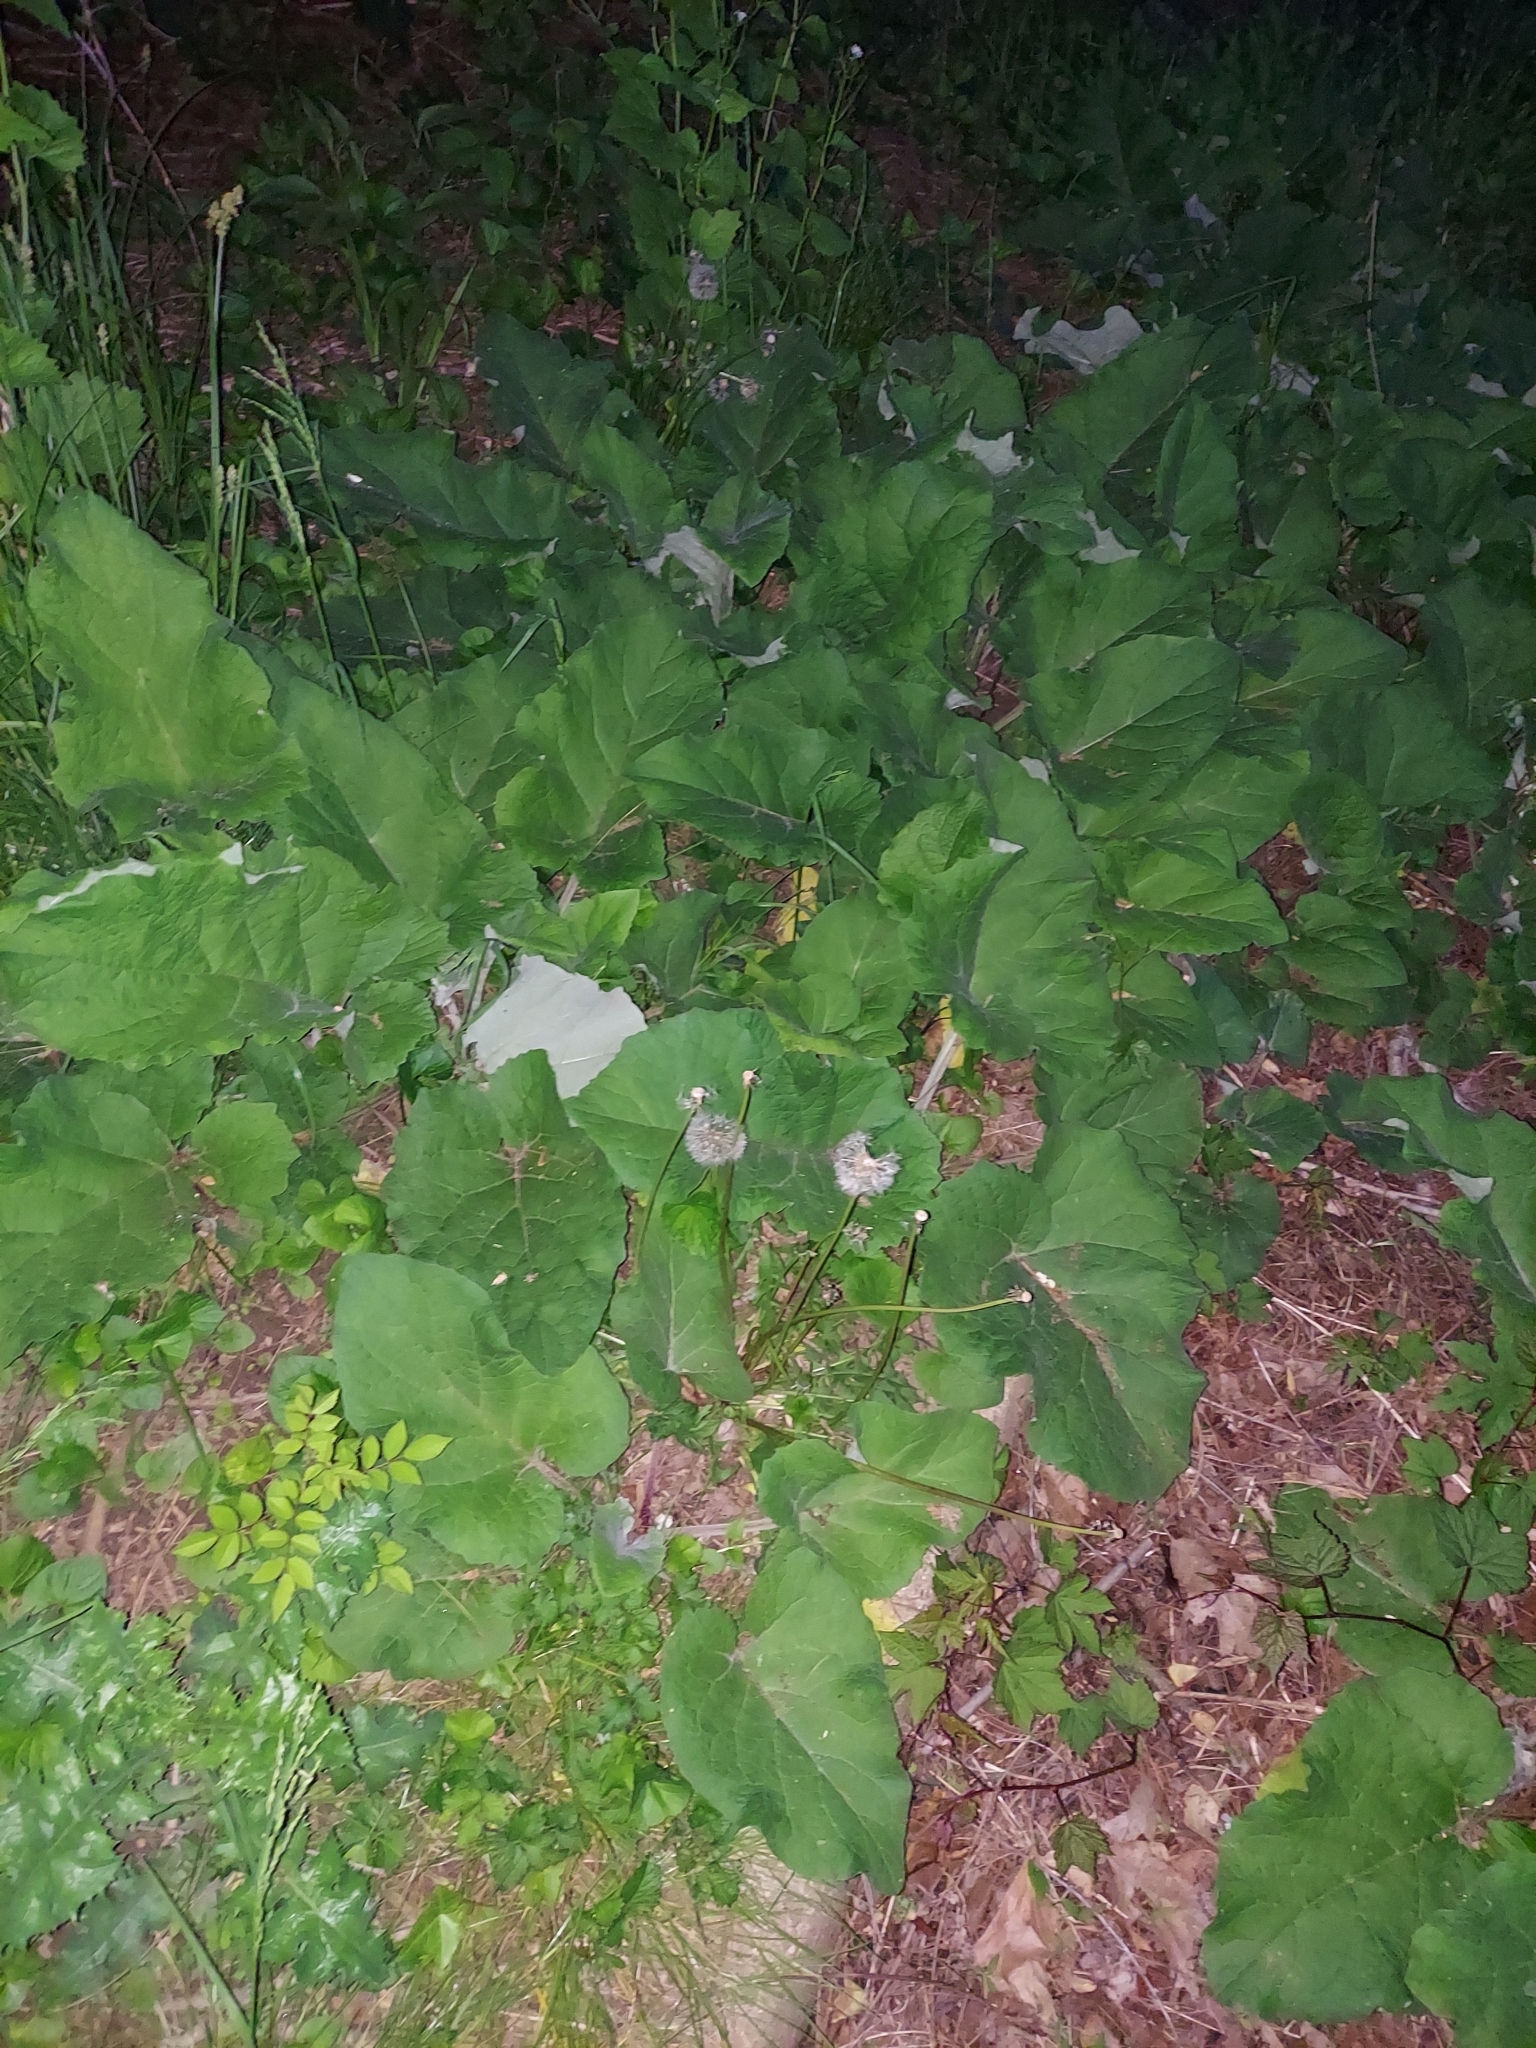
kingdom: Plantae
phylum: Tracheophyta
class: Magnoliopsida
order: Asterales
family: Asteraceae
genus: Arctium
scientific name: Arctium lappa
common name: Greater burdock
